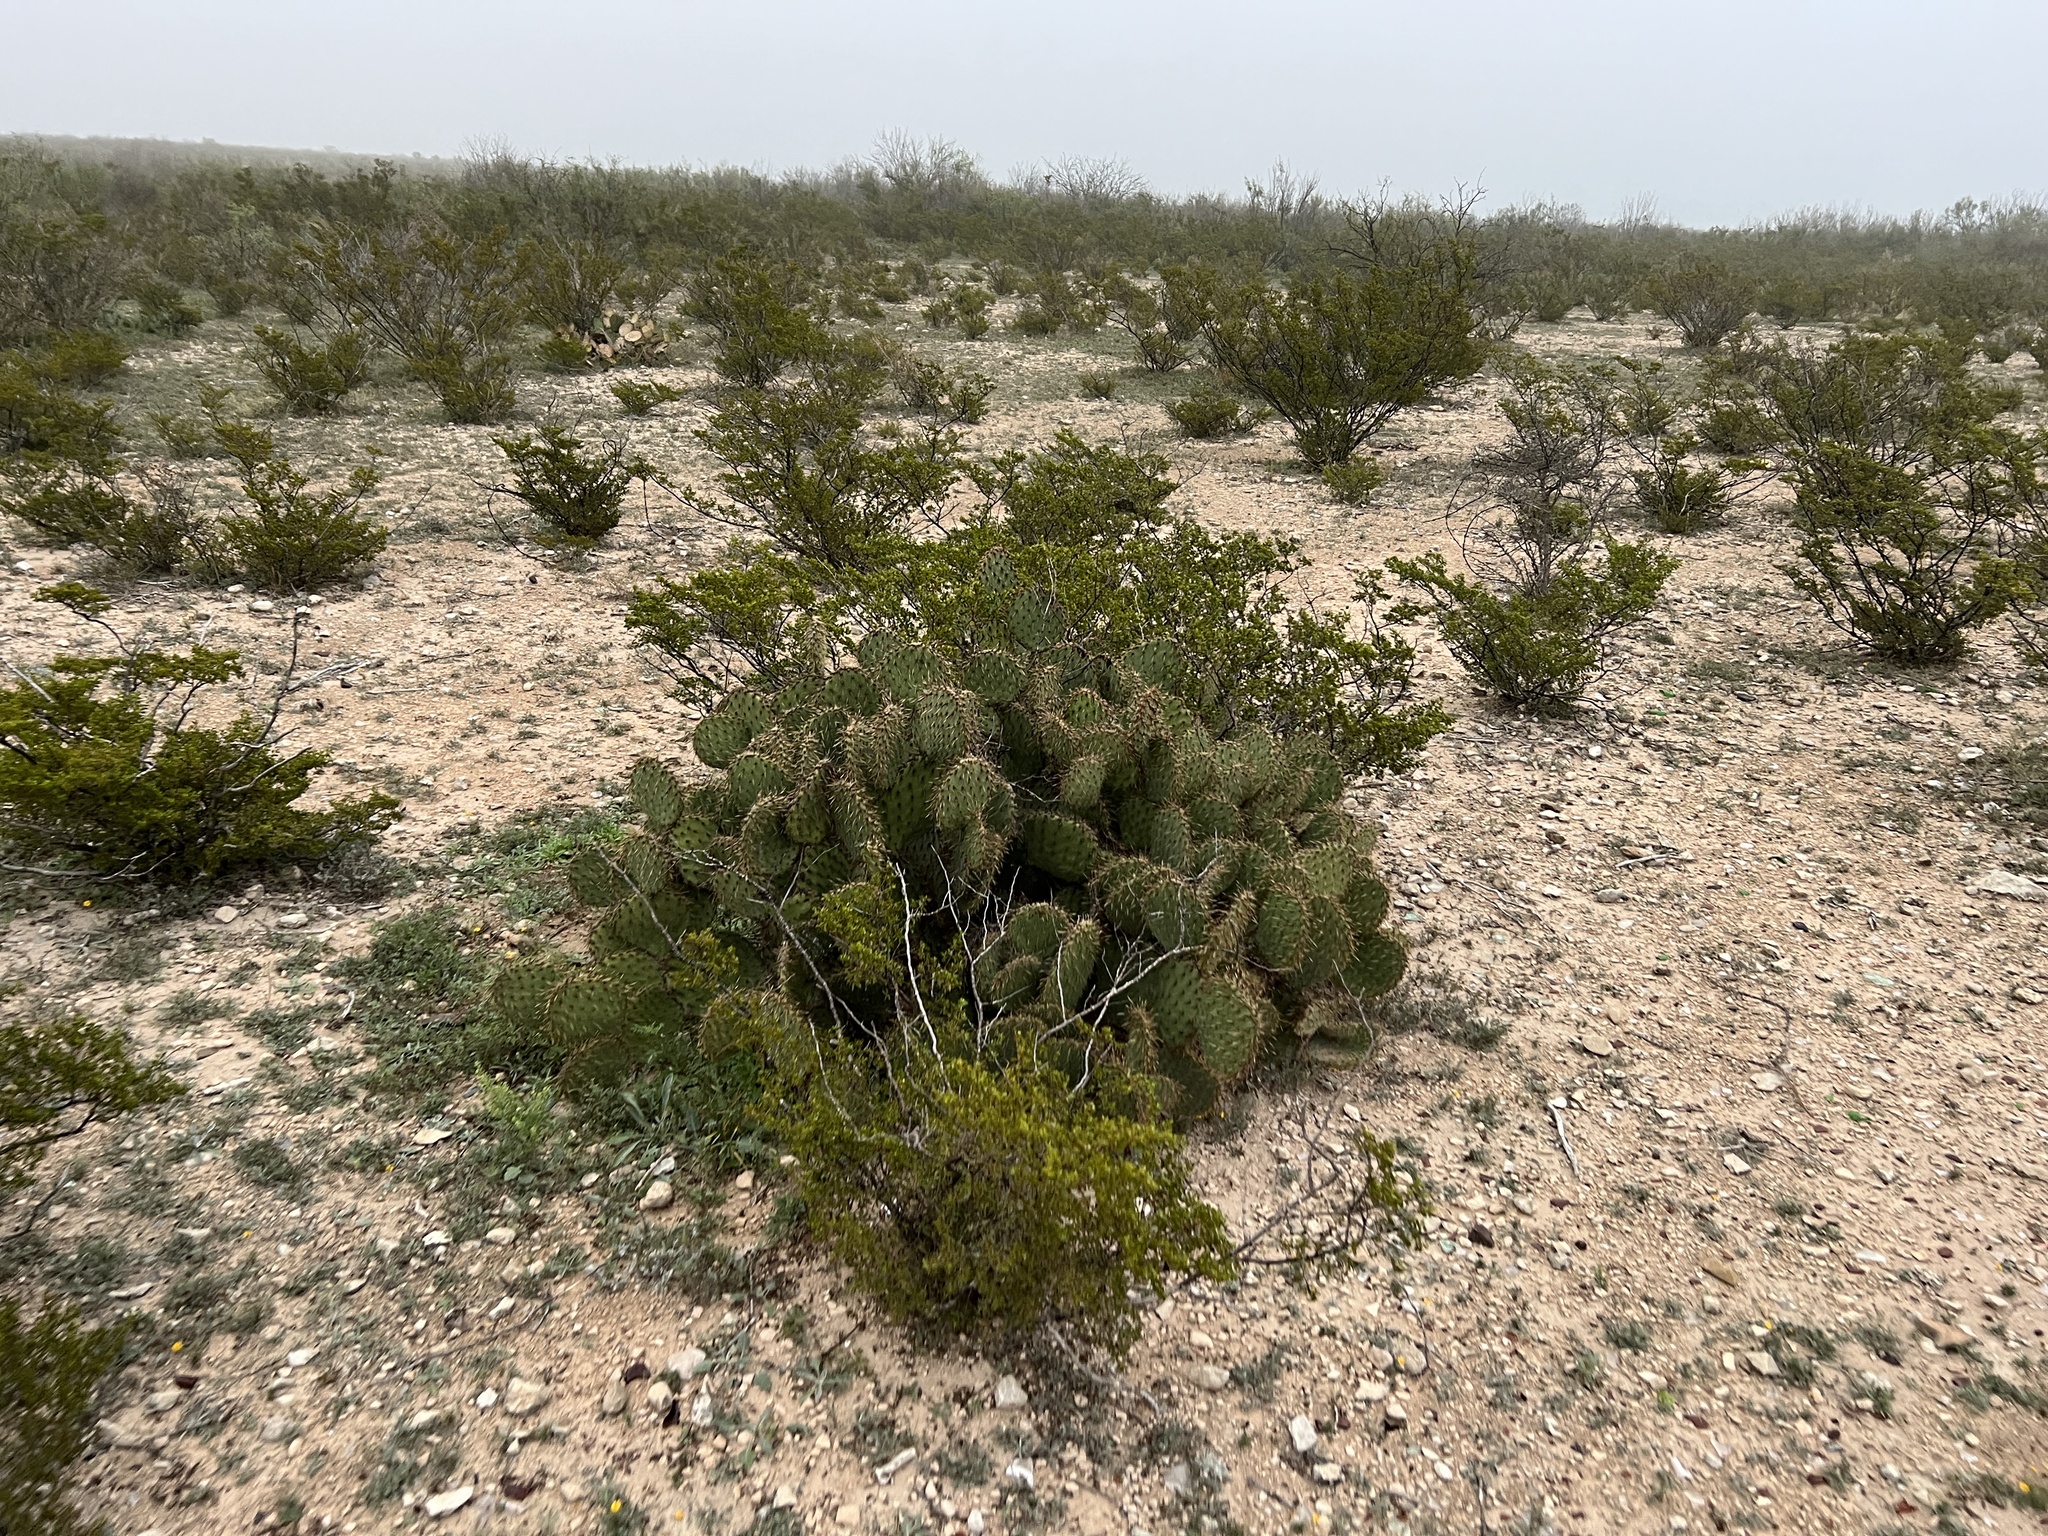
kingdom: Plantae
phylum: Tracheophyta
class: Magnoliopsida
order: Caryophyllales
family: Cactaceae
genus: Opuntia
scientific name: Opuntia strigil
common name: Marble-fruit prickly-pear
